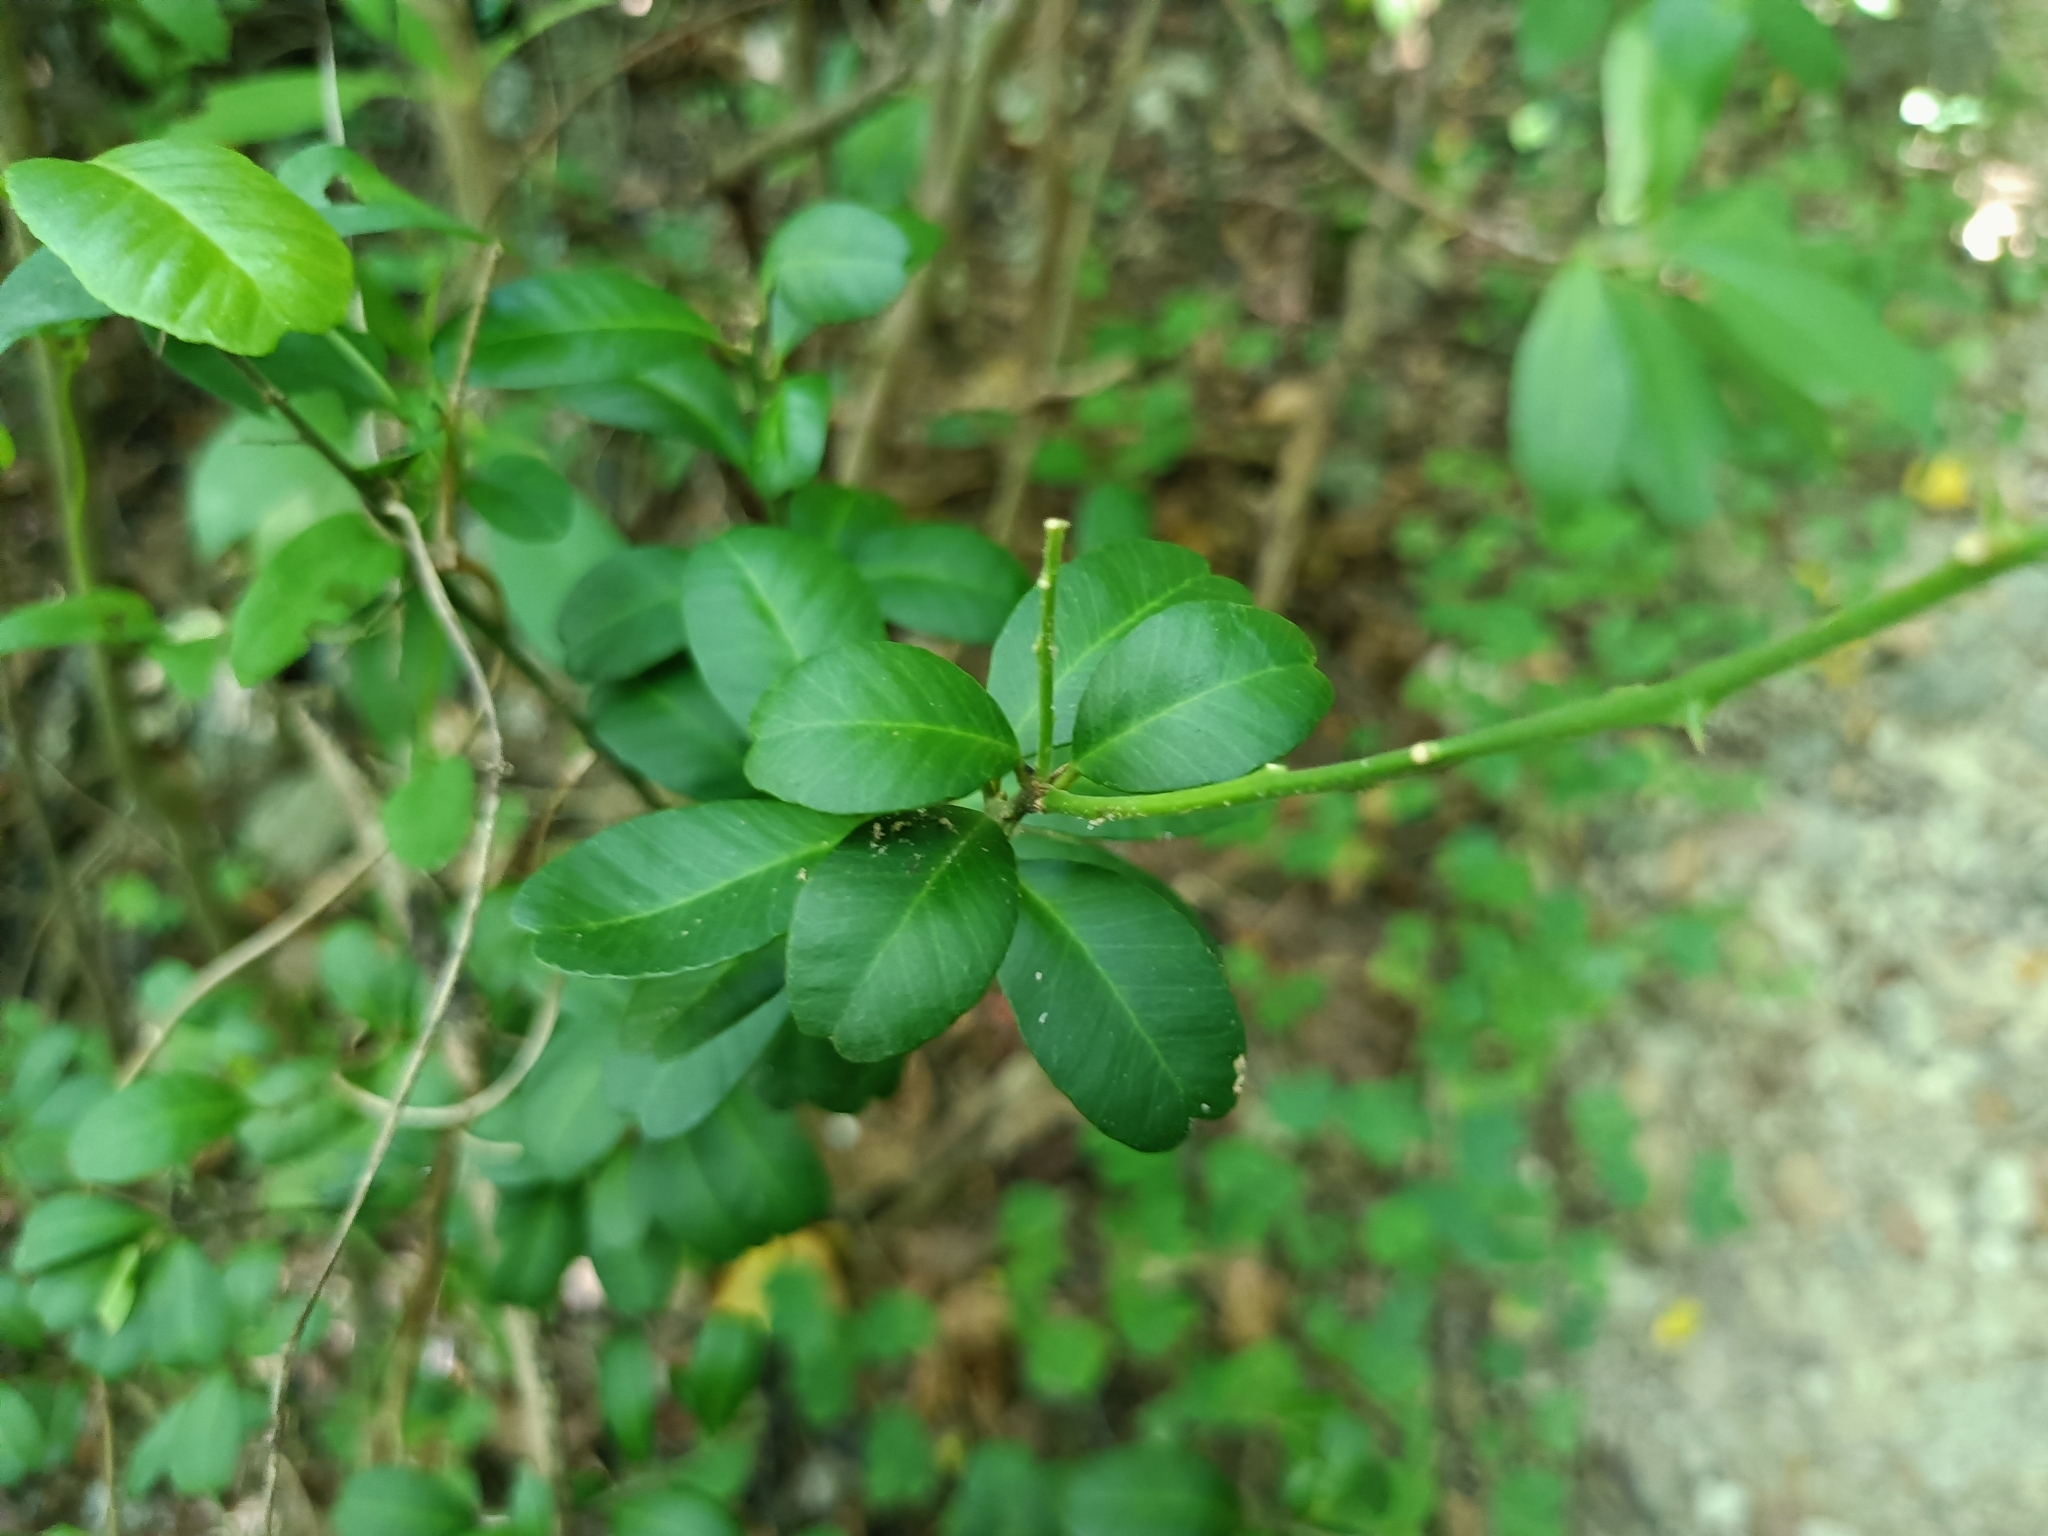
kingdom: Plantae
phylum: Tracheophyta
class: Magnoliopsida
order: Sapindales
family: Rutaceae
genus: Atalantia
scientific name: Atalantia buxifolia
